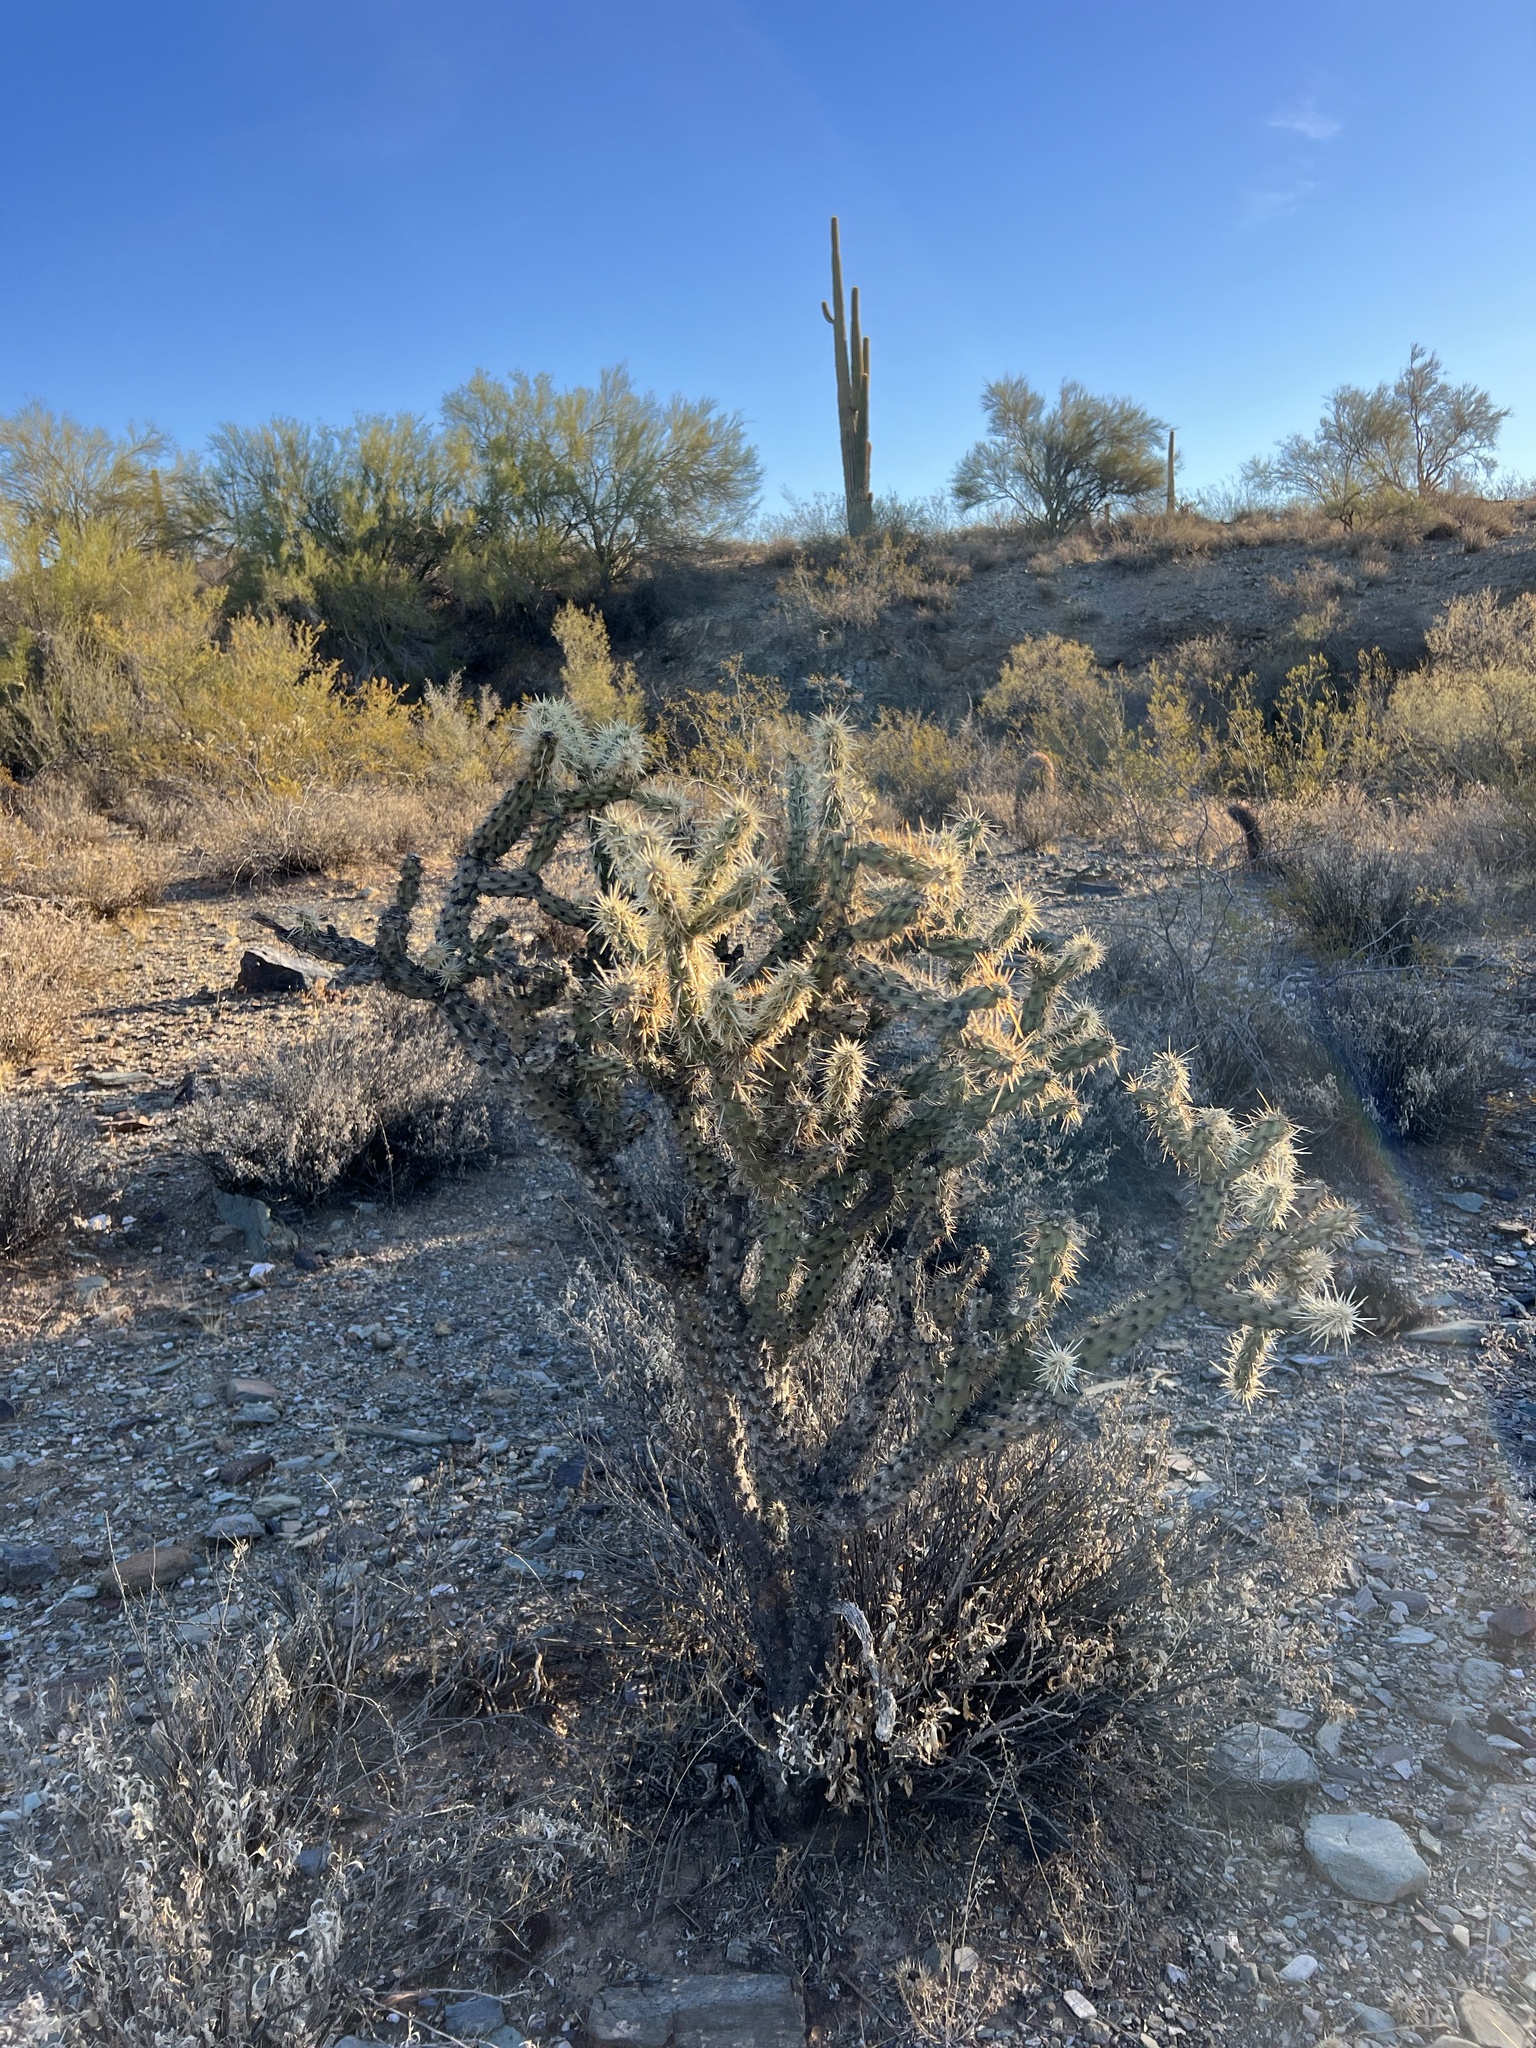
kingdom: Plantae
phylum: Tracheophyta
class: Magnoliopsida
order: Caryophyllales
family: Cactaceae
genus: Cylindropuntia
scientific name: Cylindropuntia acanthocarpa
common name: Buckhorn cholla
